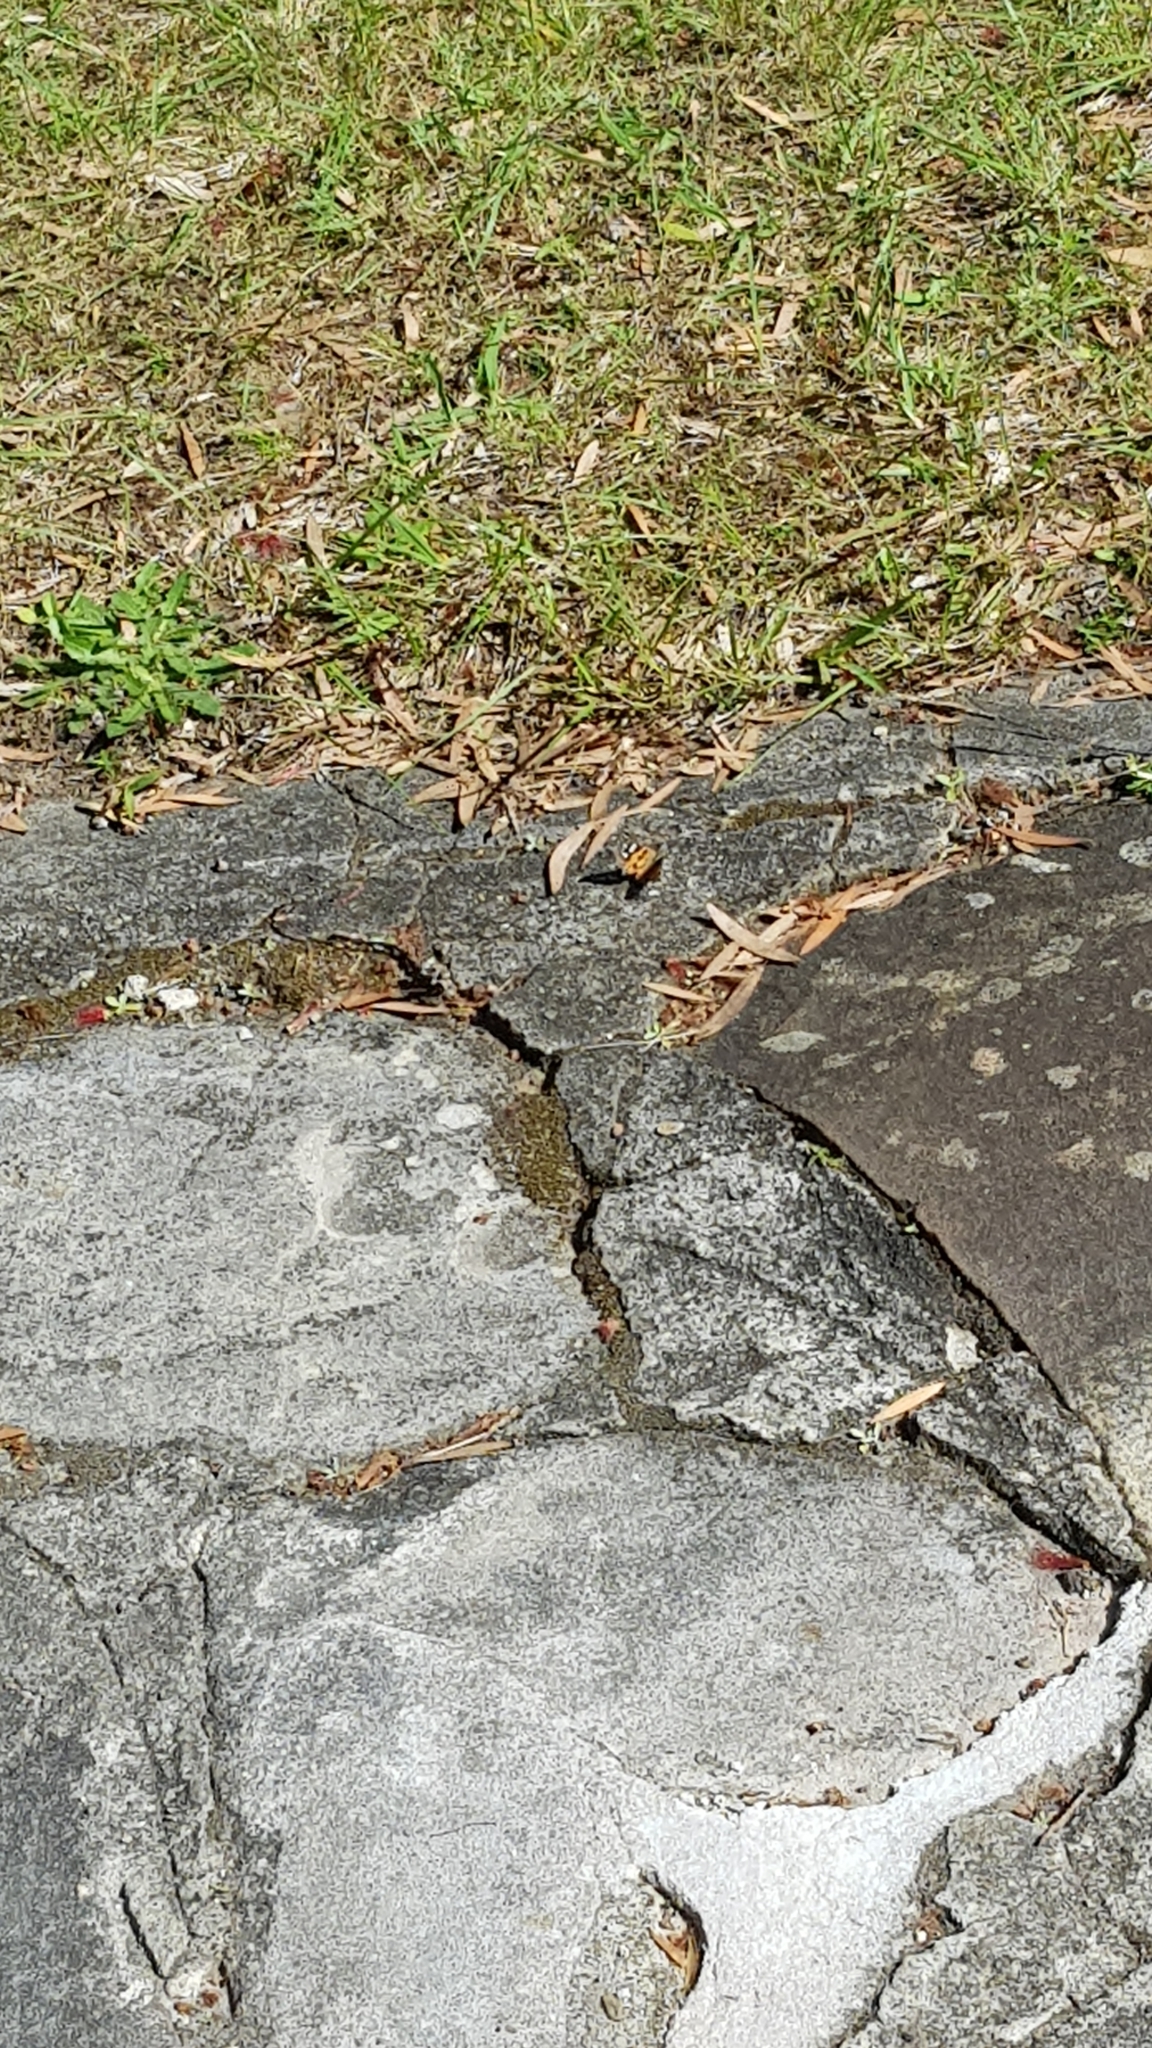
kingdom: Animalia
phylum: Arthropoda
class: Insecta
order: Lepidoptera
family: Nymphalidae
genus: Vanessa
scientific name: Vanessa kershawi
